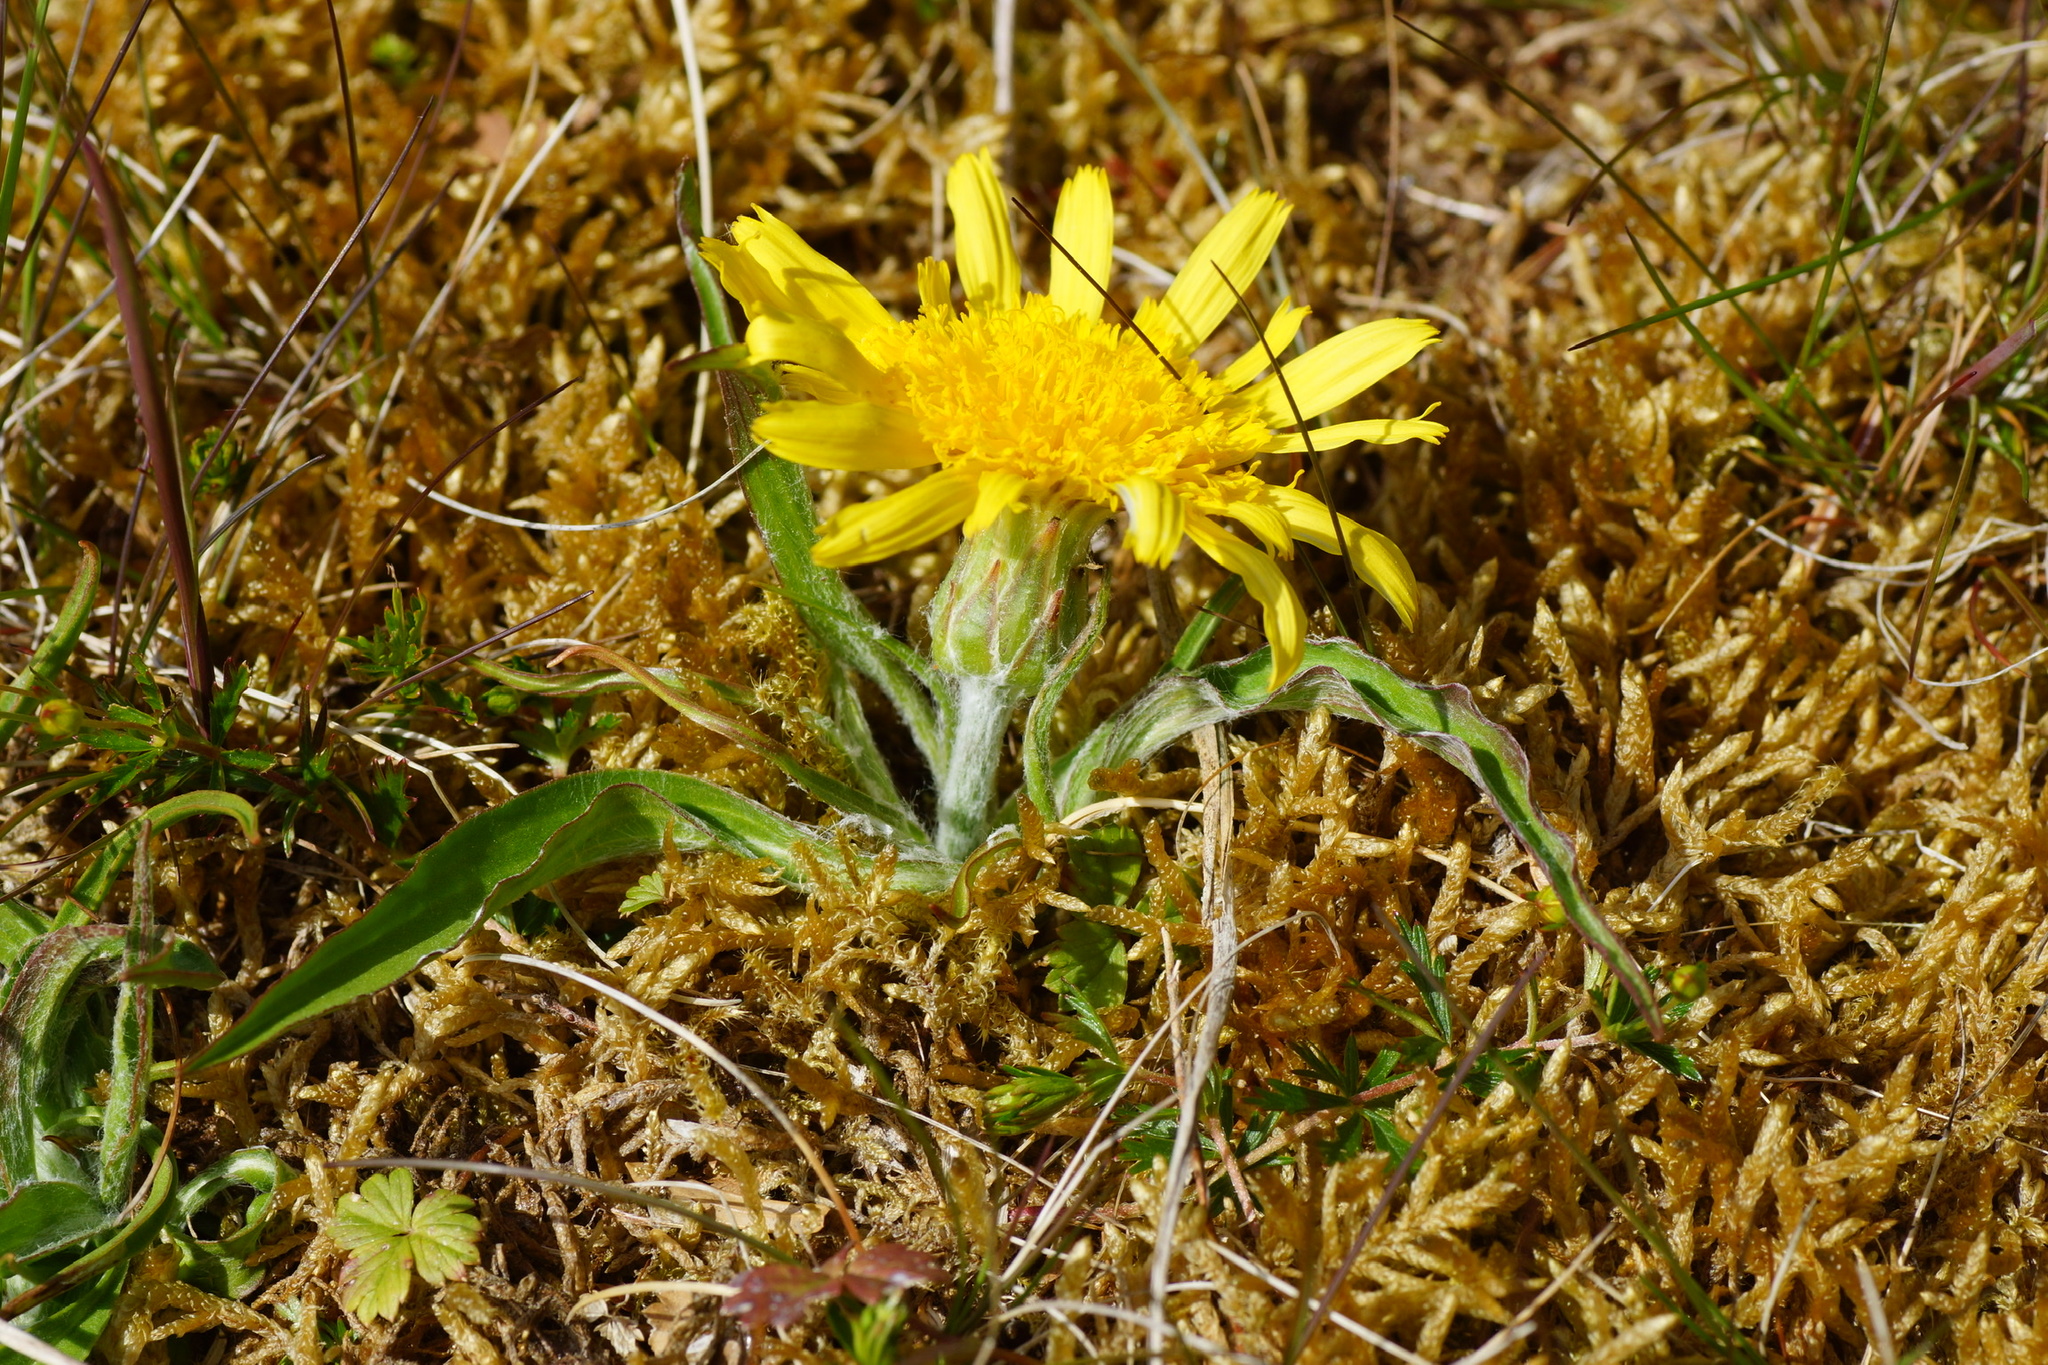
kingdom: Plantae
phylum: Tracheophyta
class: Magnoliopsida
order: Asterales
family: Asteraceae
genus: Scorzonera
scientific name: Scorzonera humilis
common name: Viper's-grass
